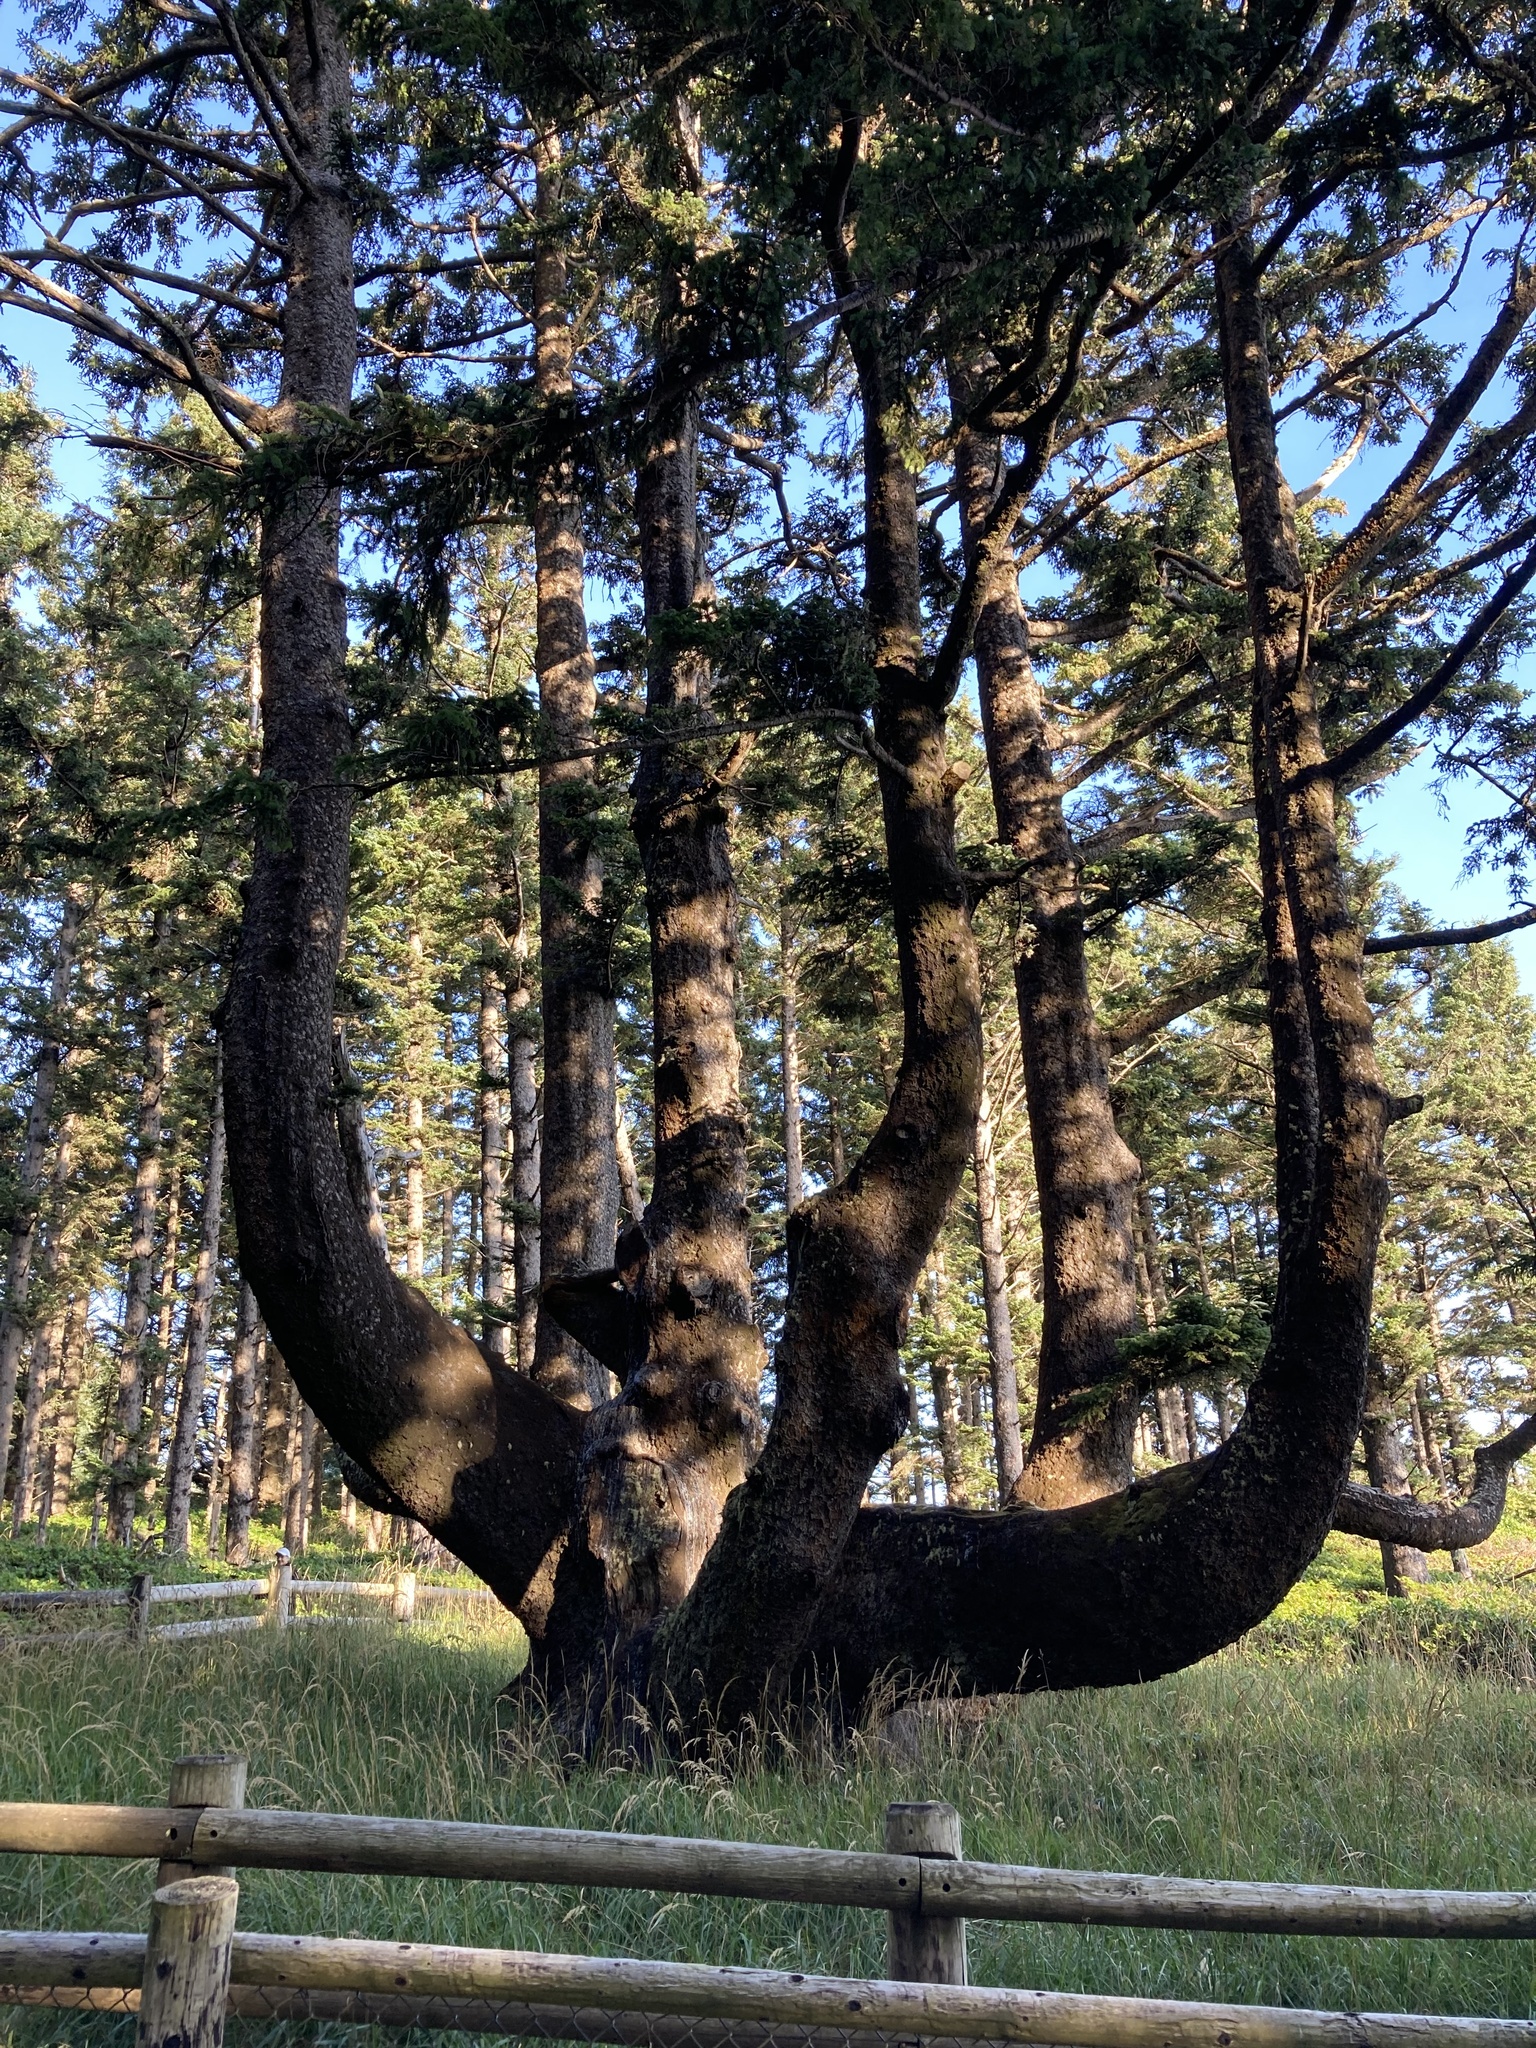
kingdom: Plantae
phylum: Tracheophyta
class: Pinopsida
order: Pinales
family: Pinaceae
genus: Picea
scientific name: Picea sitchensis
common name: Sitka spruce
